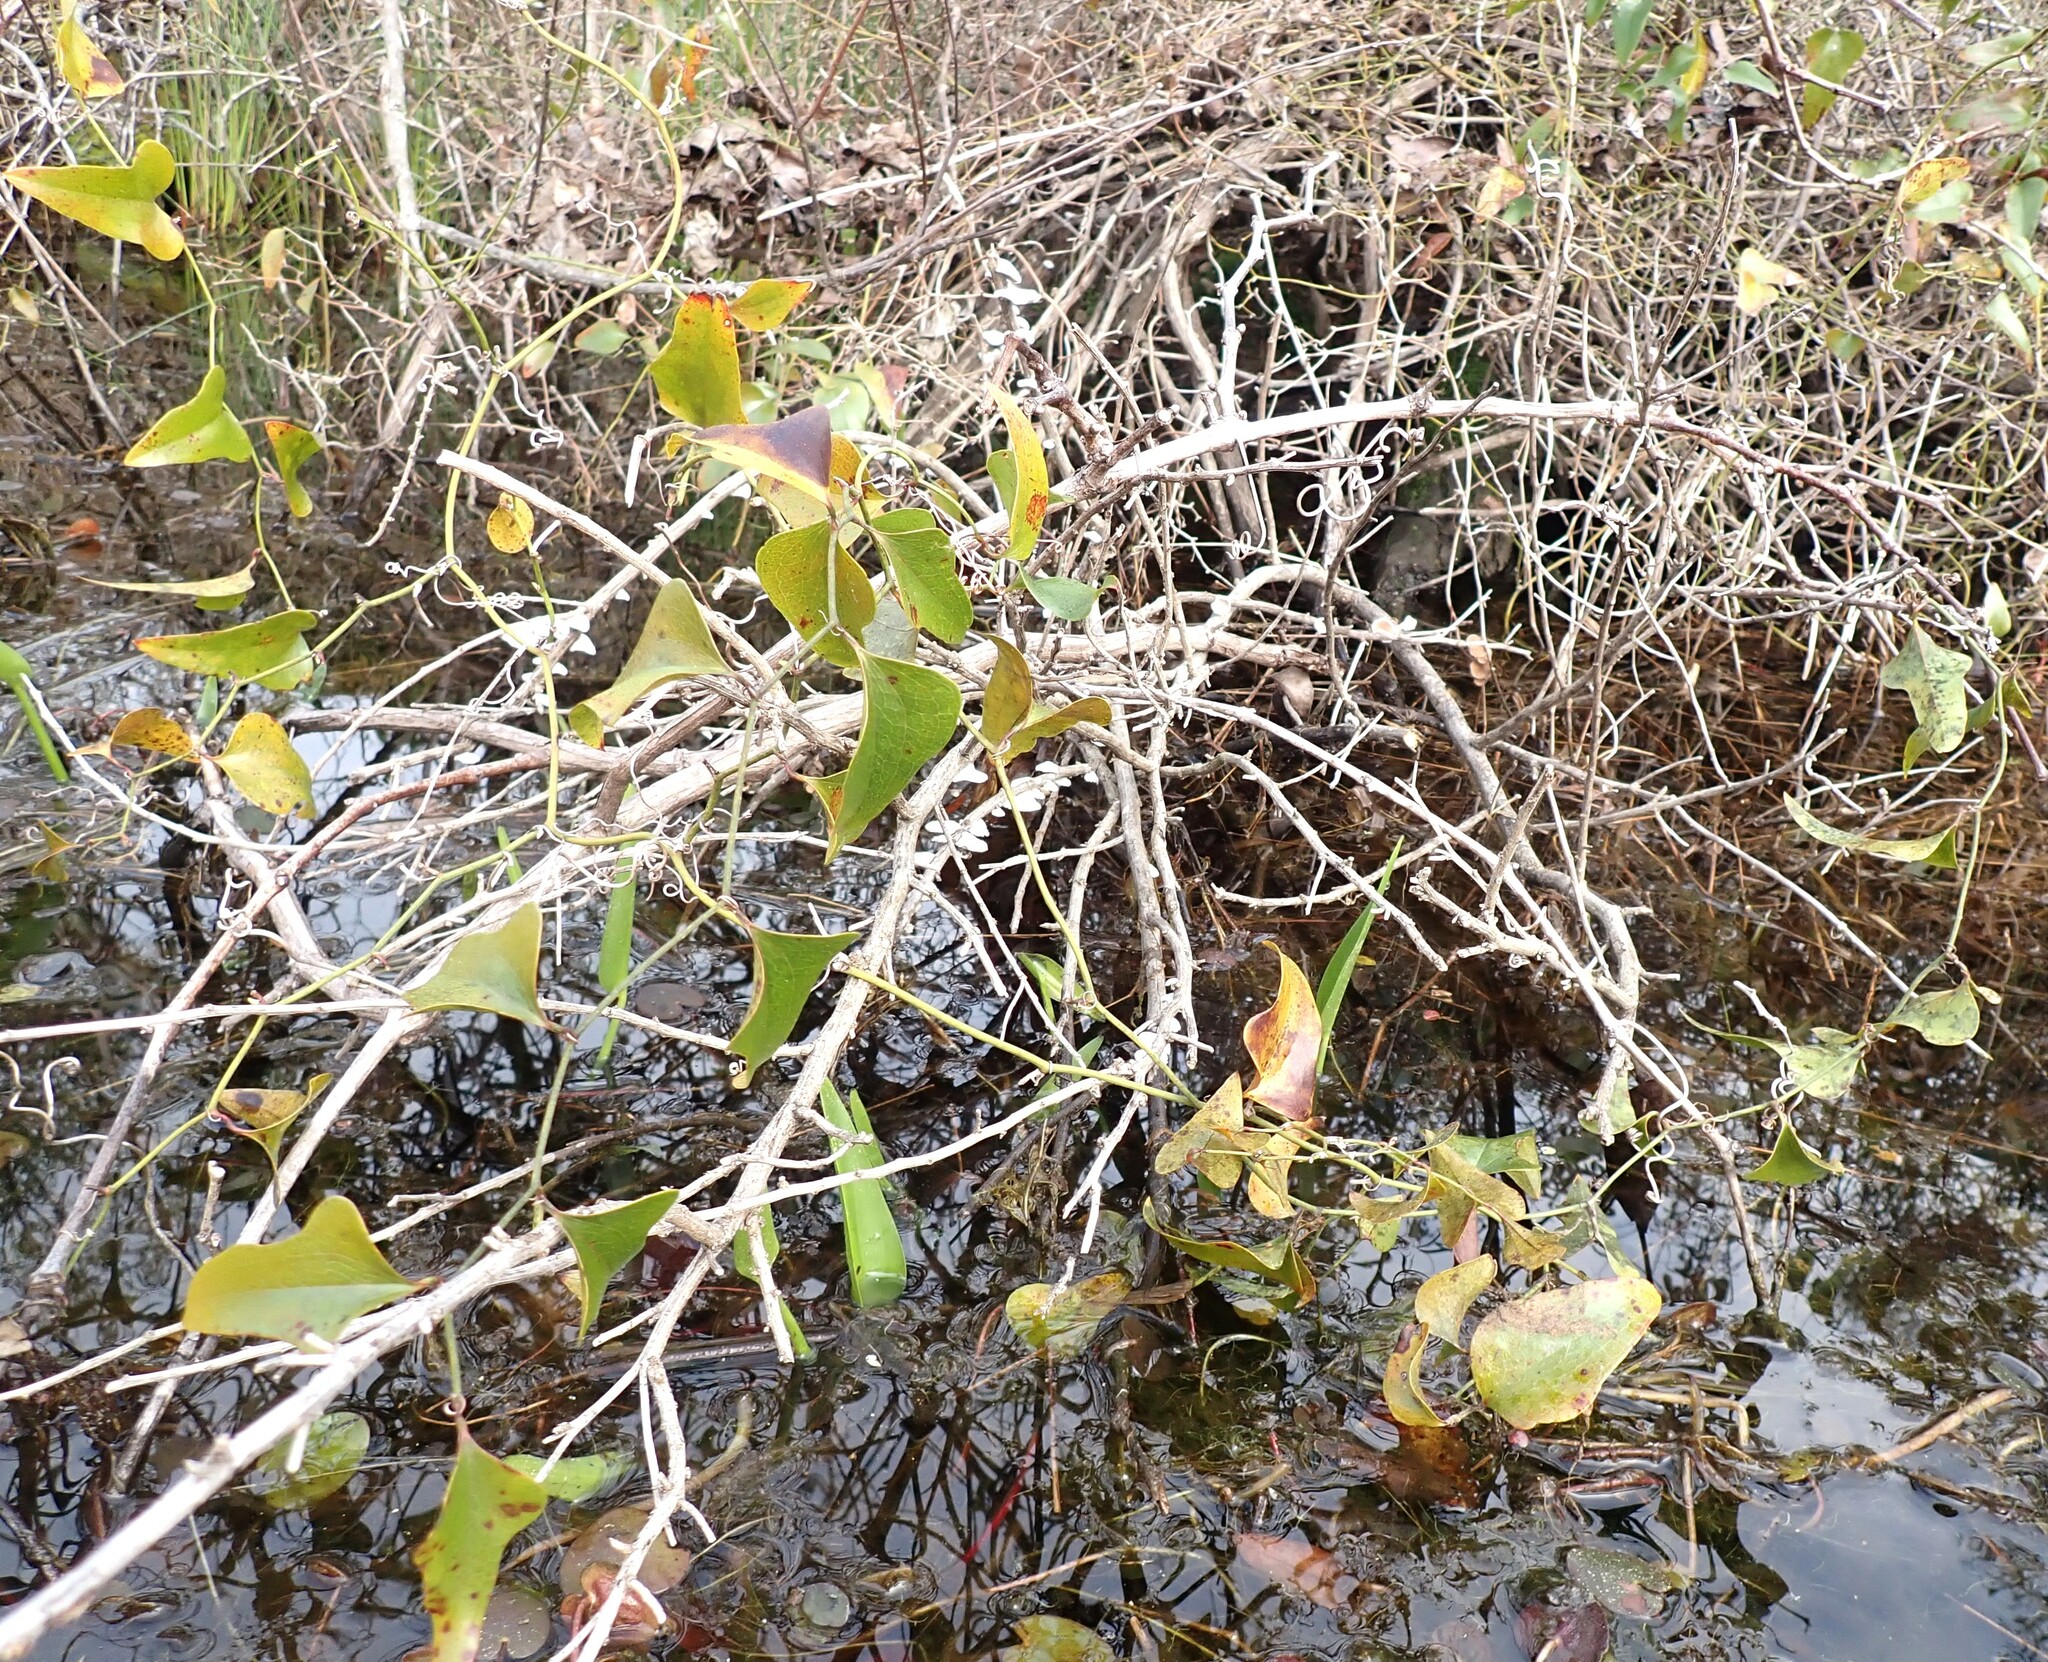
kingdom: Plantae
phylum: Tracheophyta
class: Liliopsida
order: Liliales
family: Smilacaceae
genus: Smilax
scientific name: Smilax bona-nox
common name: Catbrier
